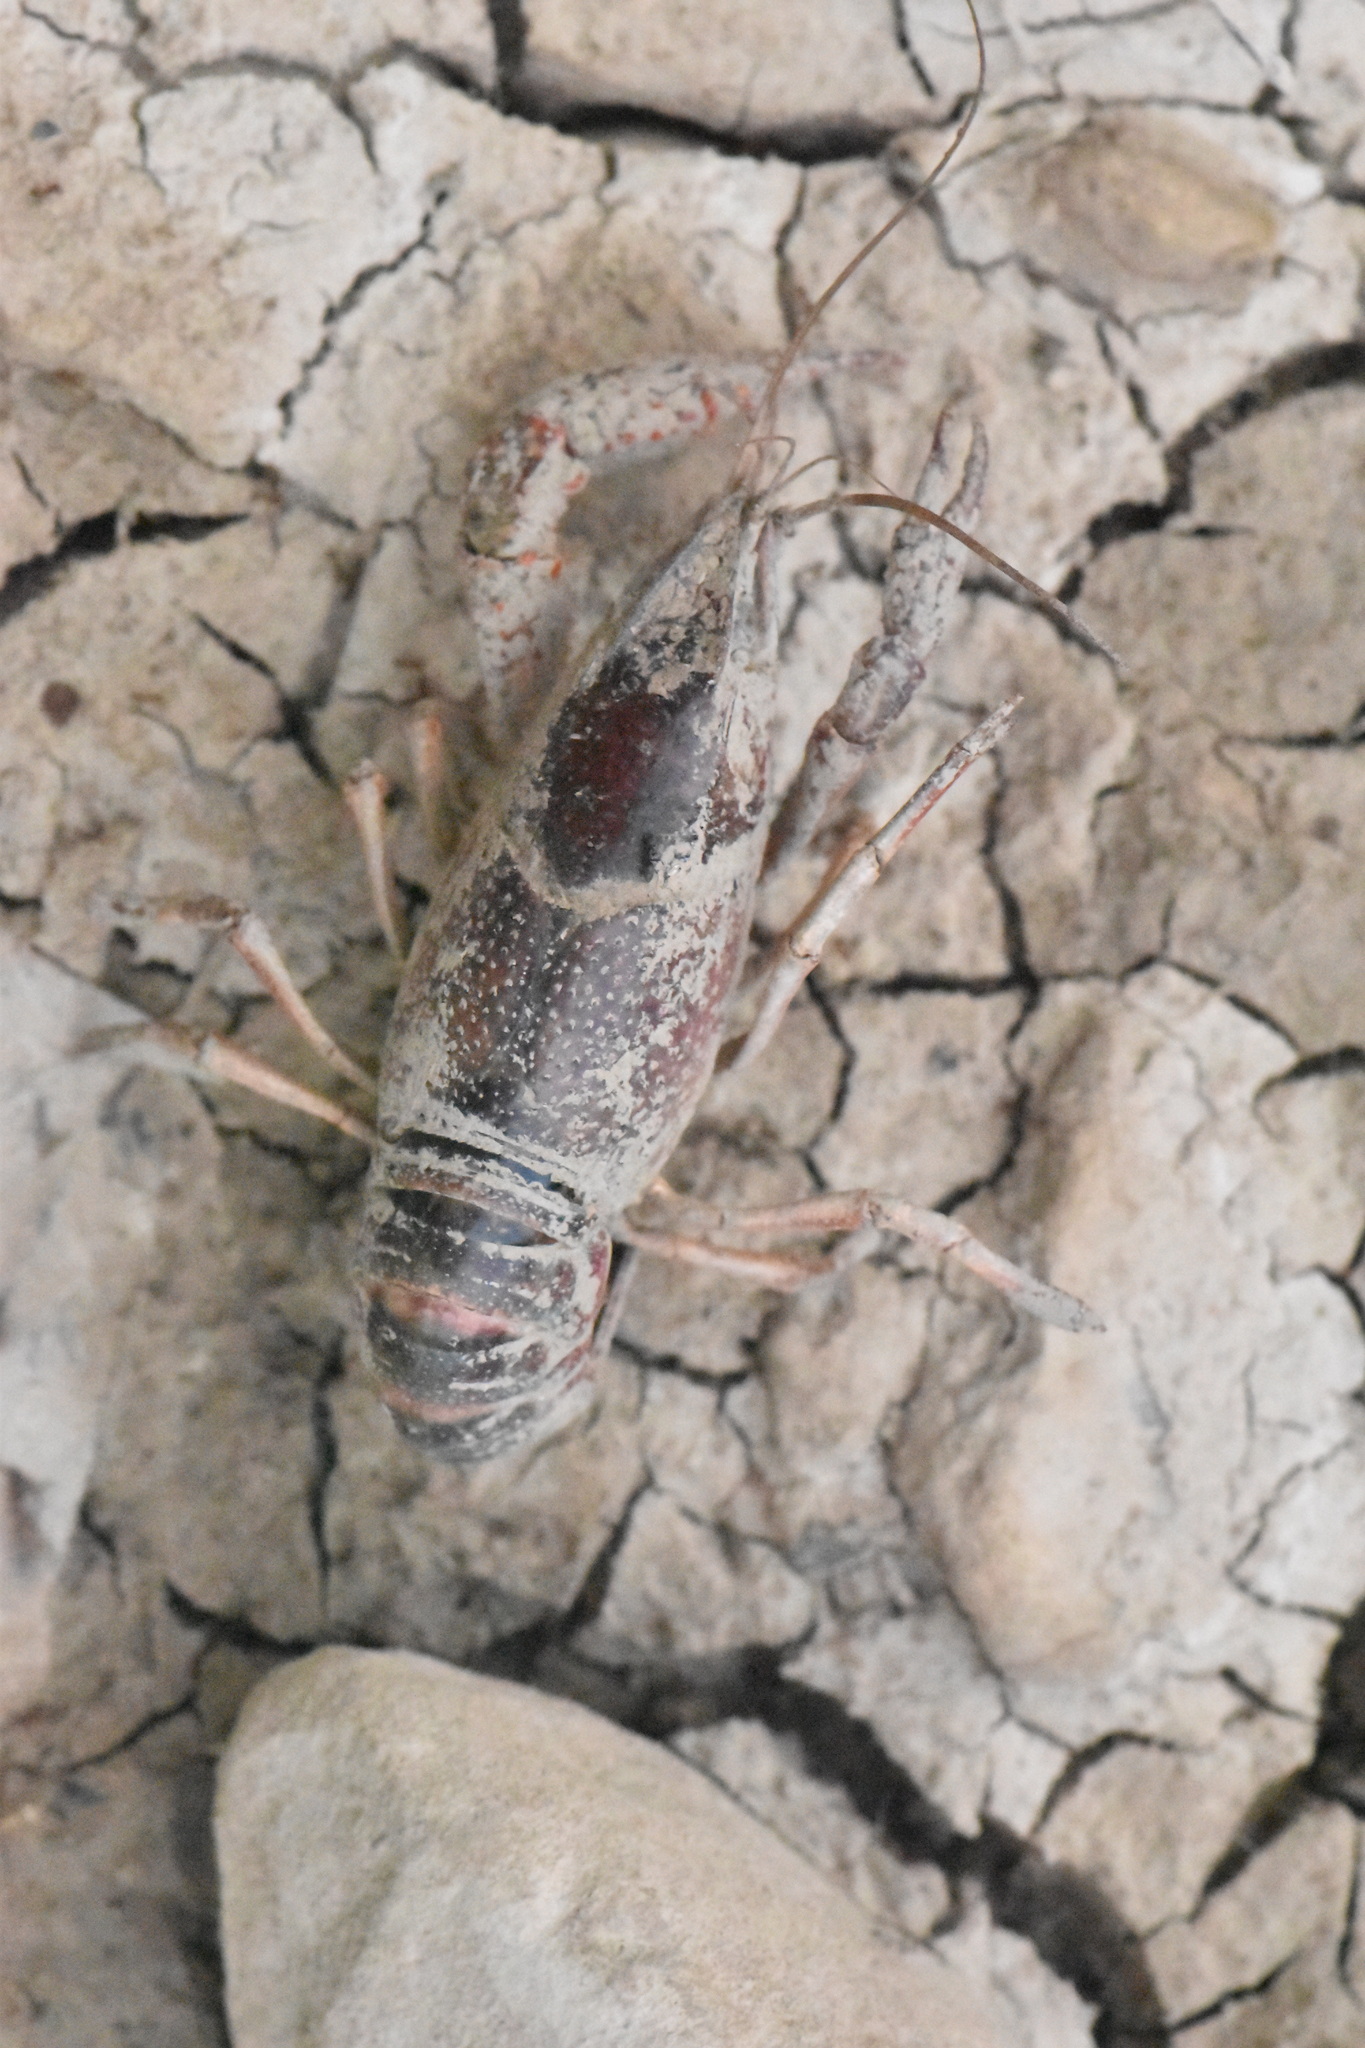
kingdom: Animalia
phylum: Arthropoda
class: Malacostraca
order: Decapoda
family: Cambaridae
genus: Procambarus
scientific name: Procambarus clarkii
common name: Red swamp crayfish
